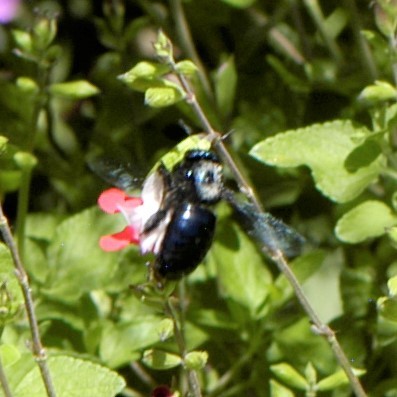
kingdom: Animalia
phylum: Arthropoda
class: Insecta
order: Hymenoptera
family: Apidae
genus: Xylocopa
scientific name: Xylocopa californica
